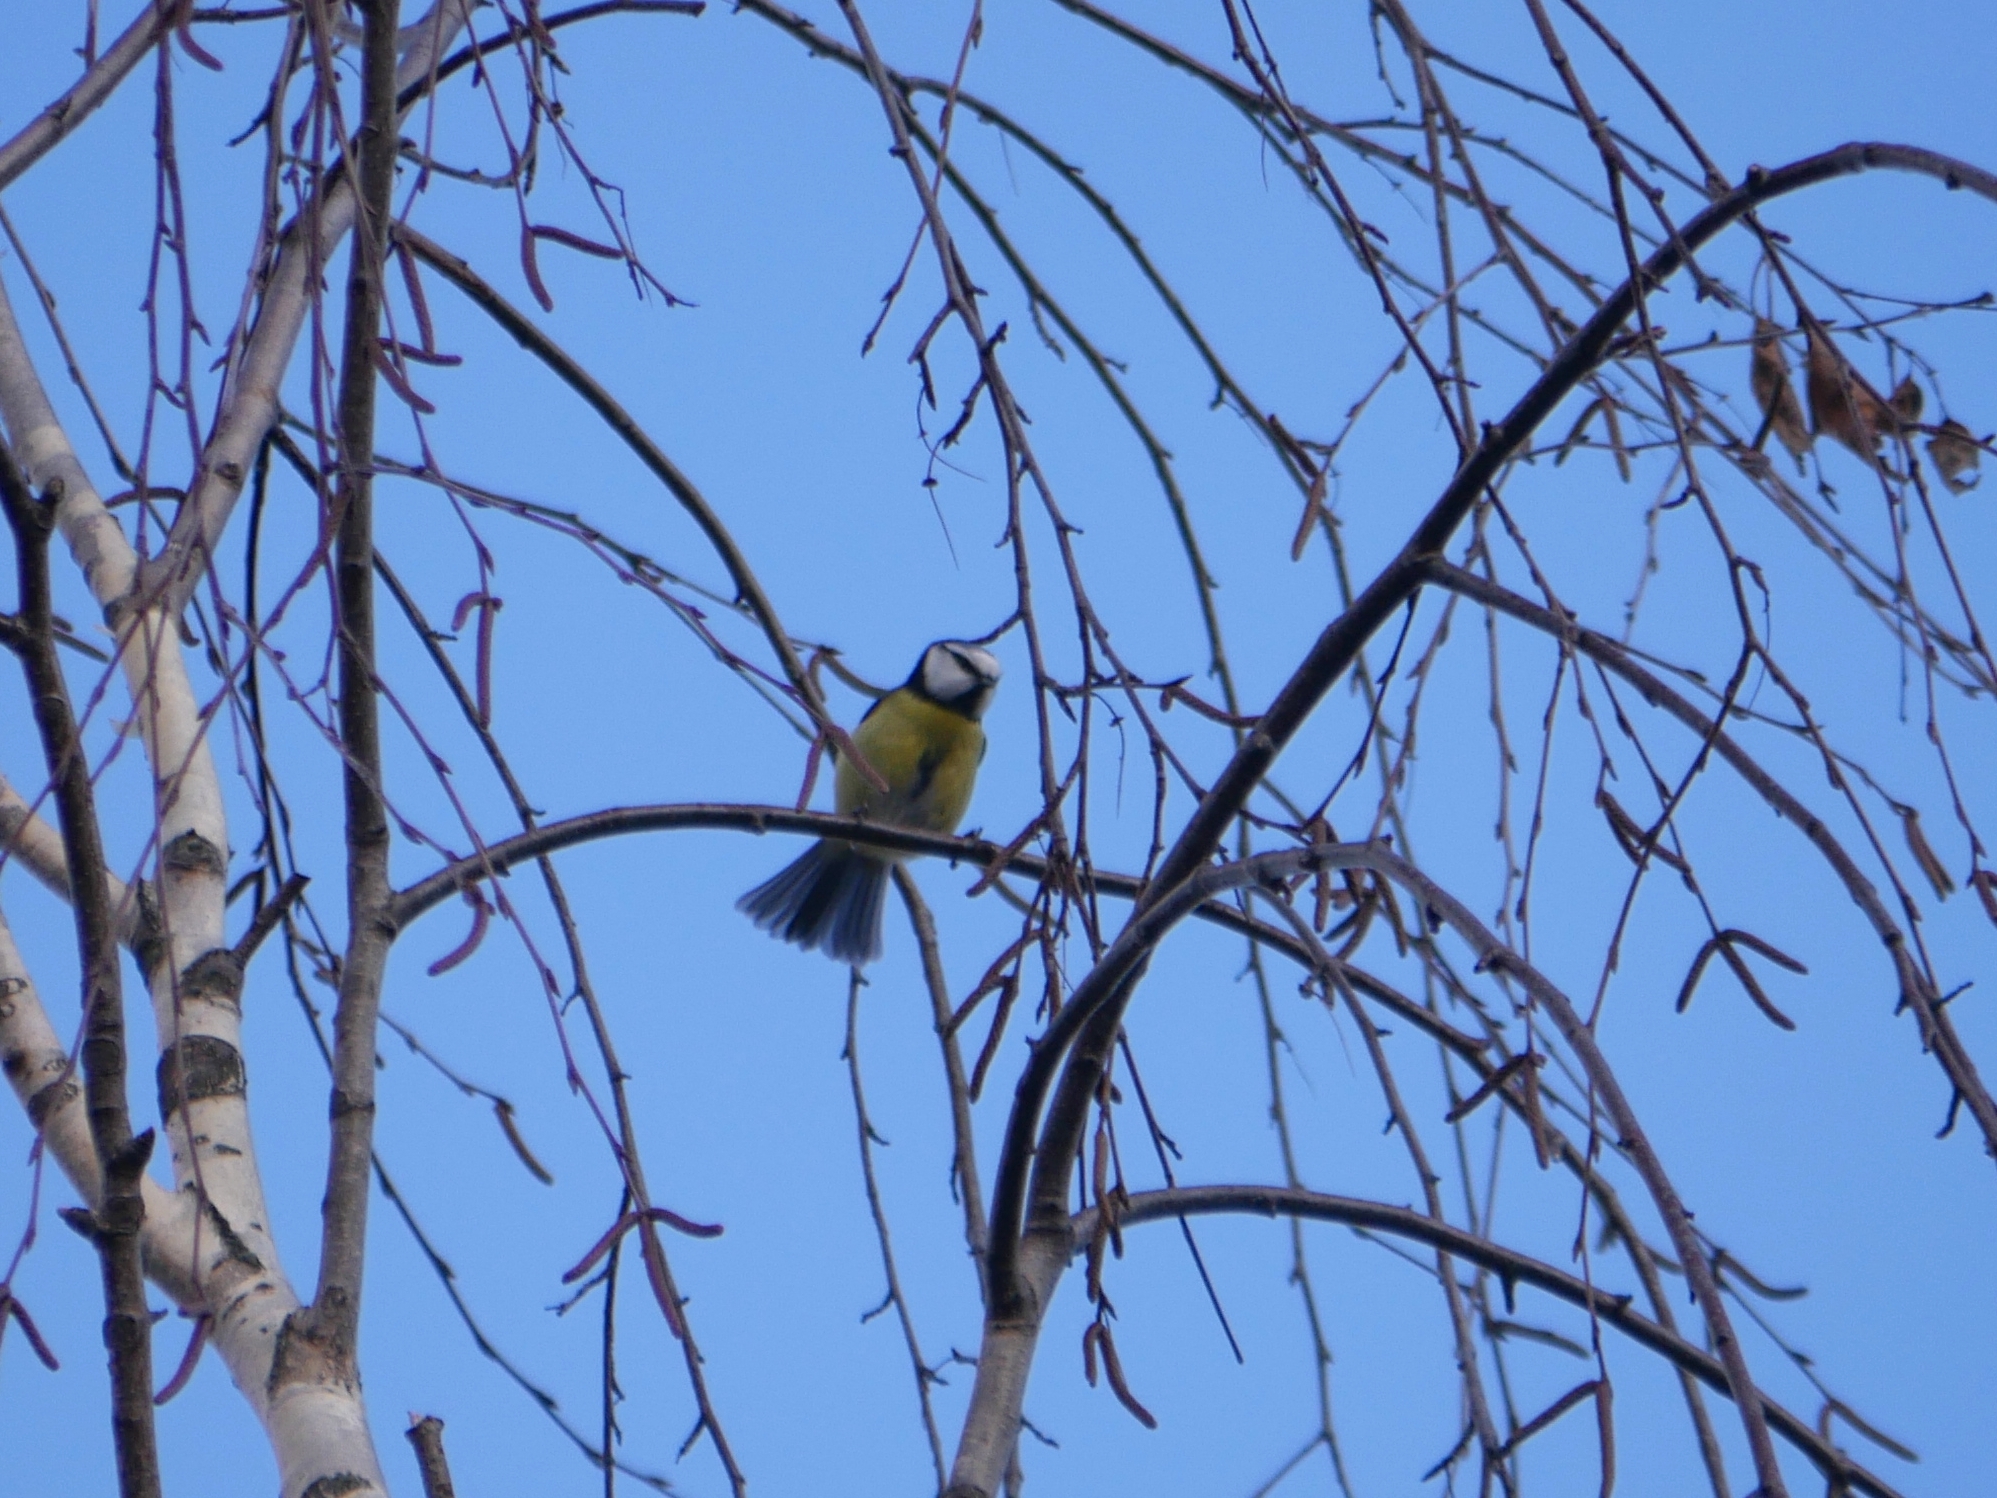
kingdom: Animalia
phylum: Chordata
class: Aves
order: Passeriformes
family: Paridae
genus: Cyanistes
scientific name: Cyanistes caeruleus
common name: Eurasian blue tit
